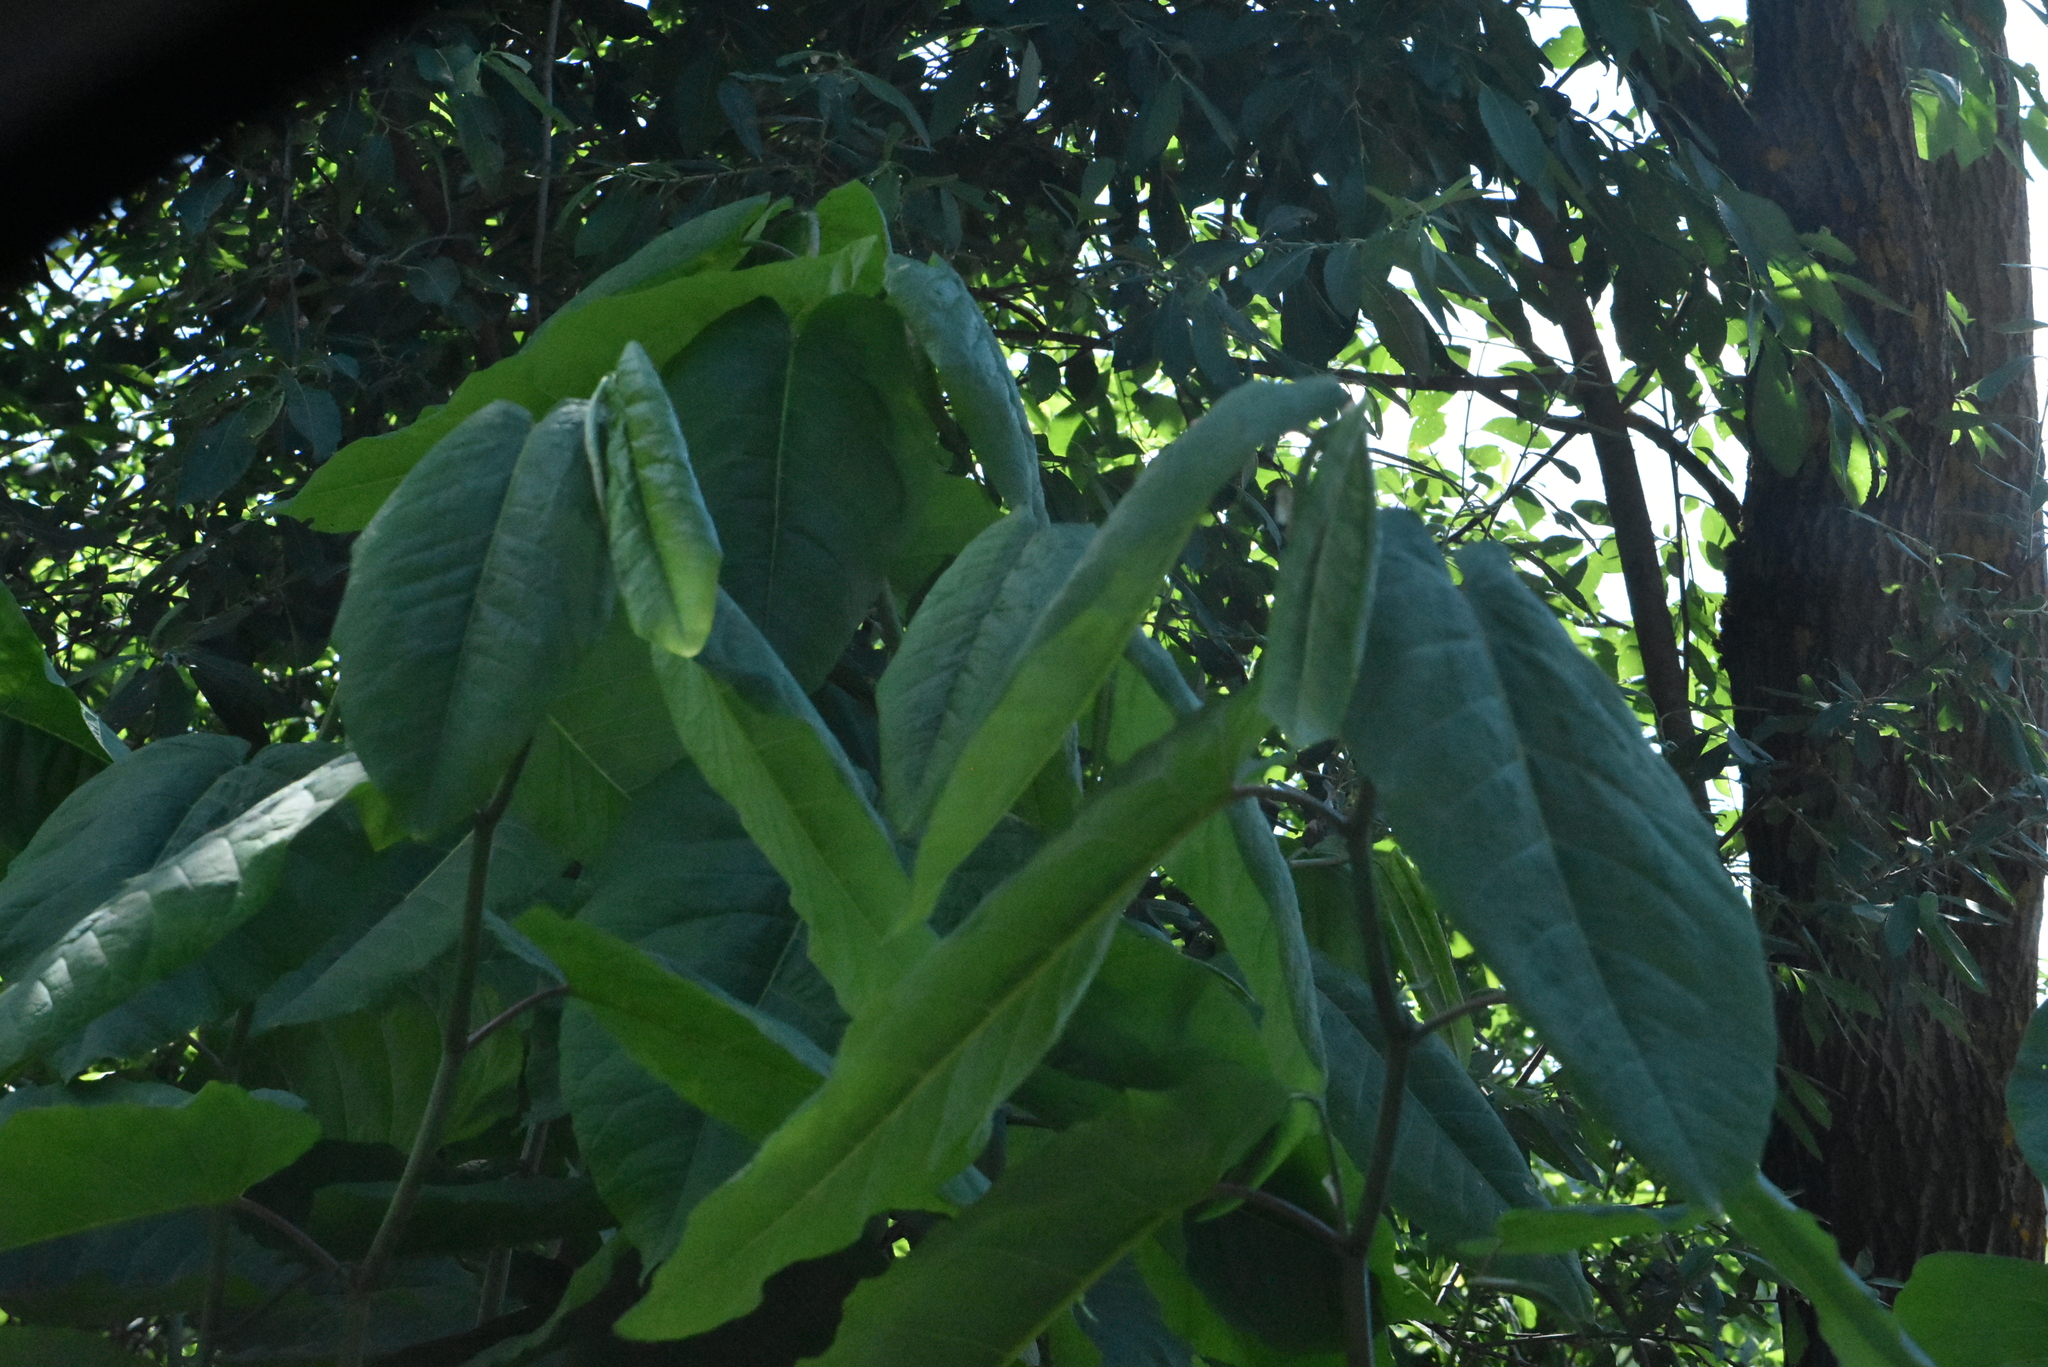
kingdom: Plantae
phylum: Tracheophyta
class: Magnoliopsida
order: Caryophyllales
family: Polygonaceae
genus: Reynoutria
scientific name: Reynoutria sachalinensis
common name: Giant knotweed
